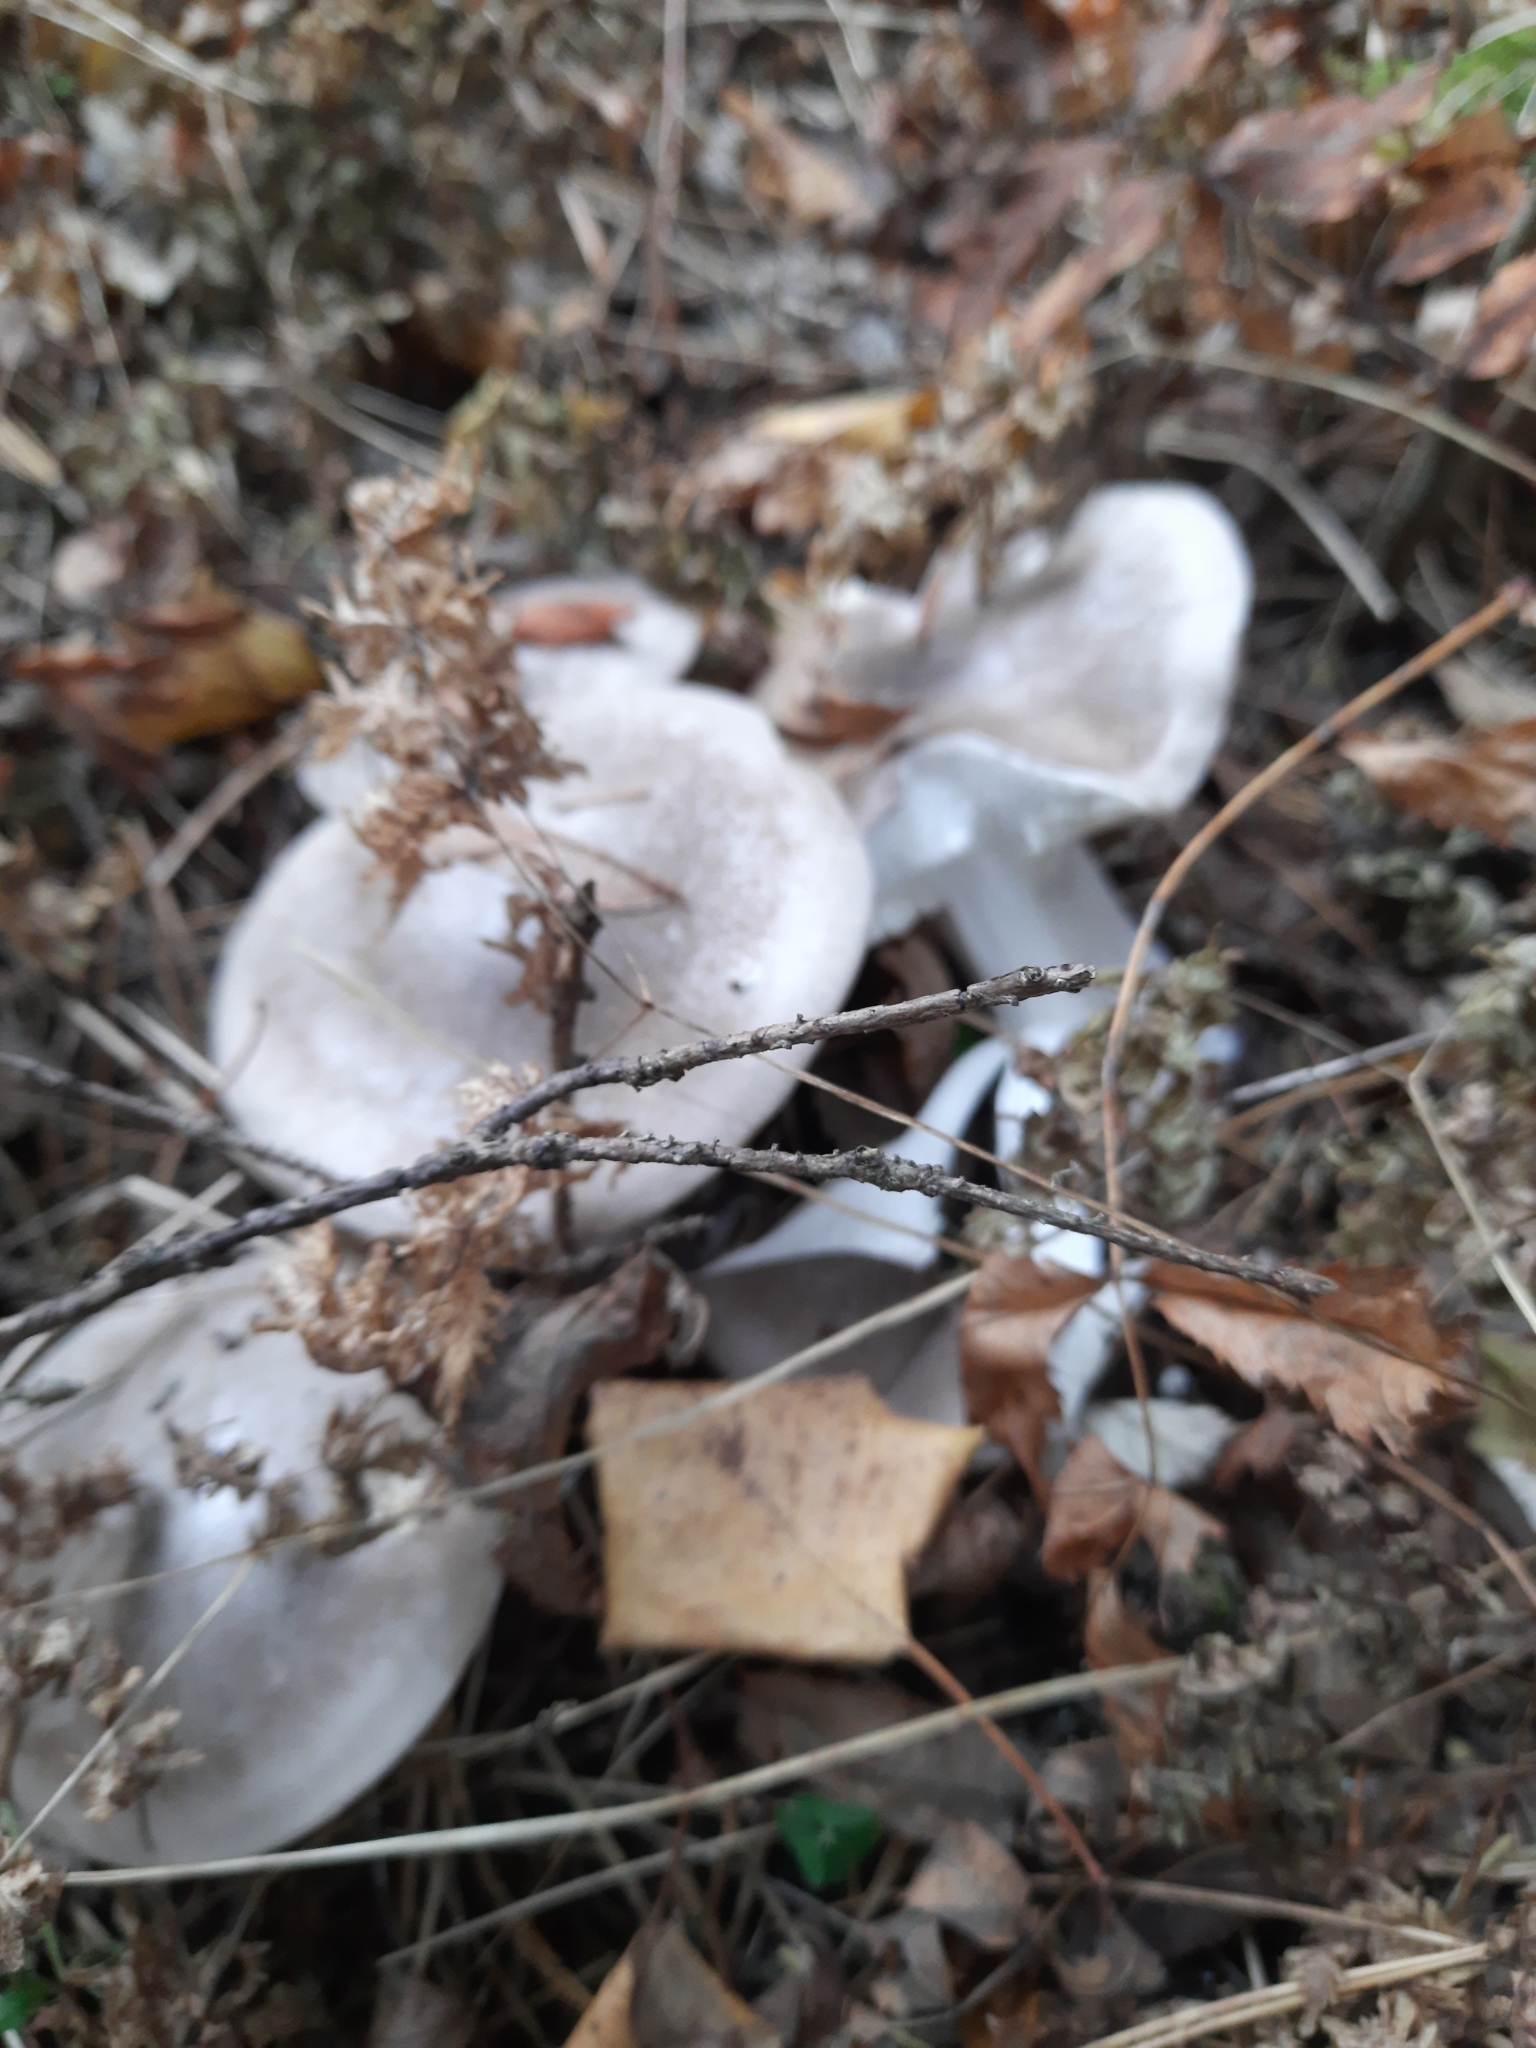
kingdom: Fungi
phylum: Basidiomycota
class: Agaricomycetes
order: Agaricales
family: Tricholomataceae
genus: Clitocybe
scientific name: Clitocybe nebularis
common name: Clouded agaric
